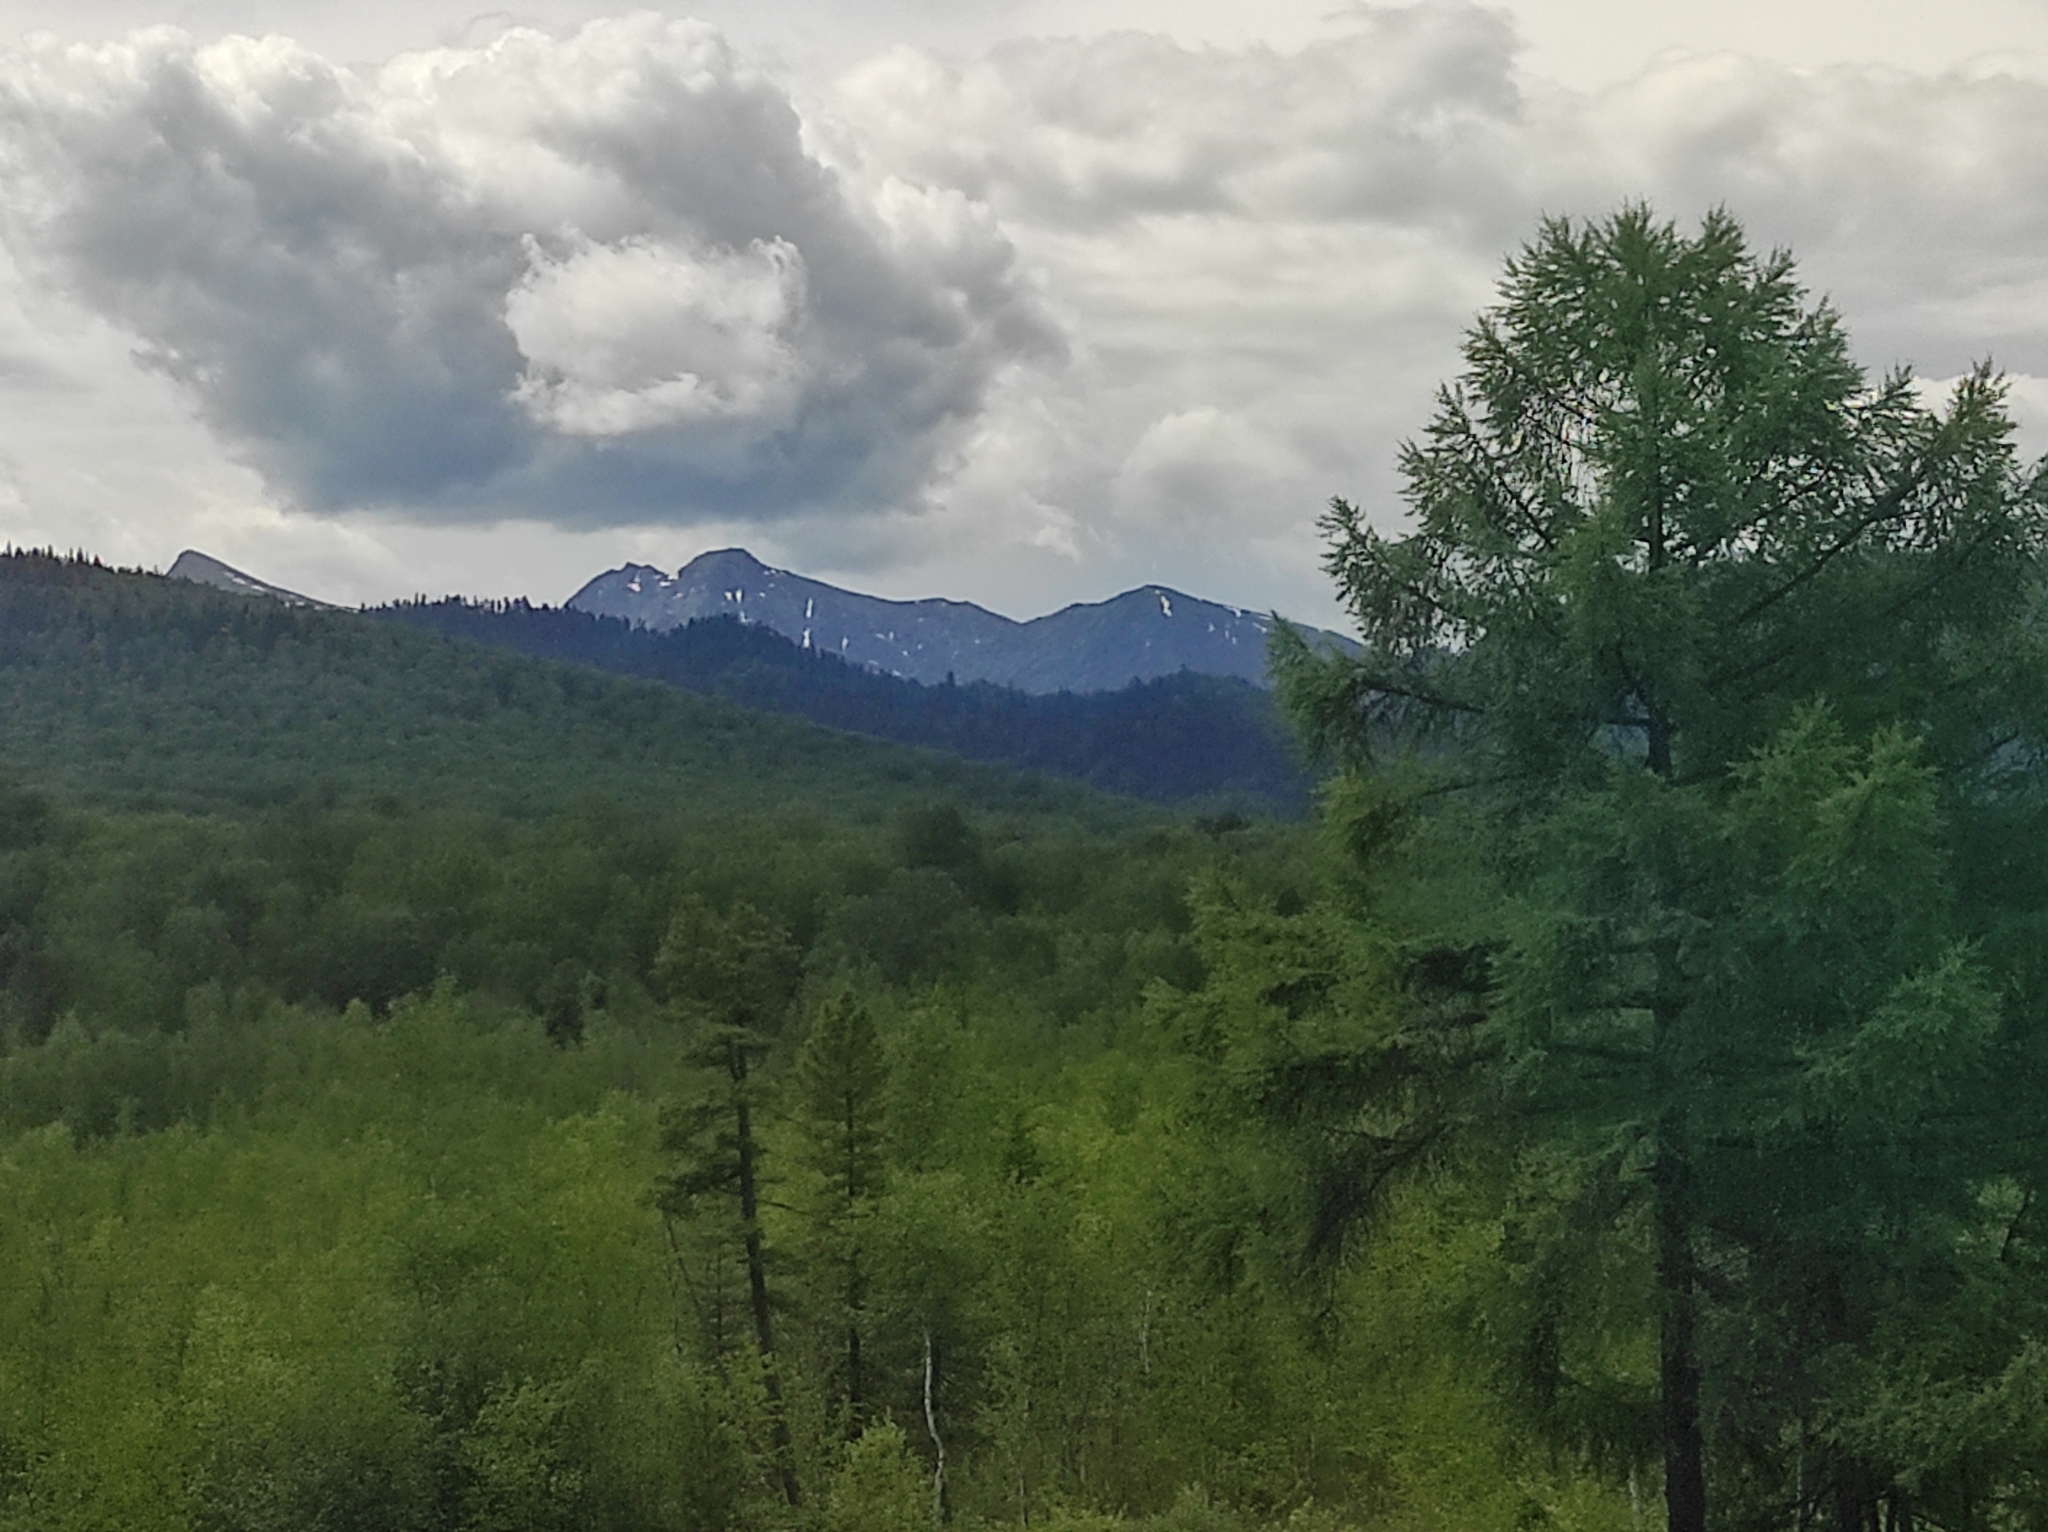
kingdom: Plantae
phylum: Tracheophyta
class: Pinopsida
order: Pinales
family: Pinaceae
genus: Larix
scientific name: Larix sibirica
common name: Siberian larch
